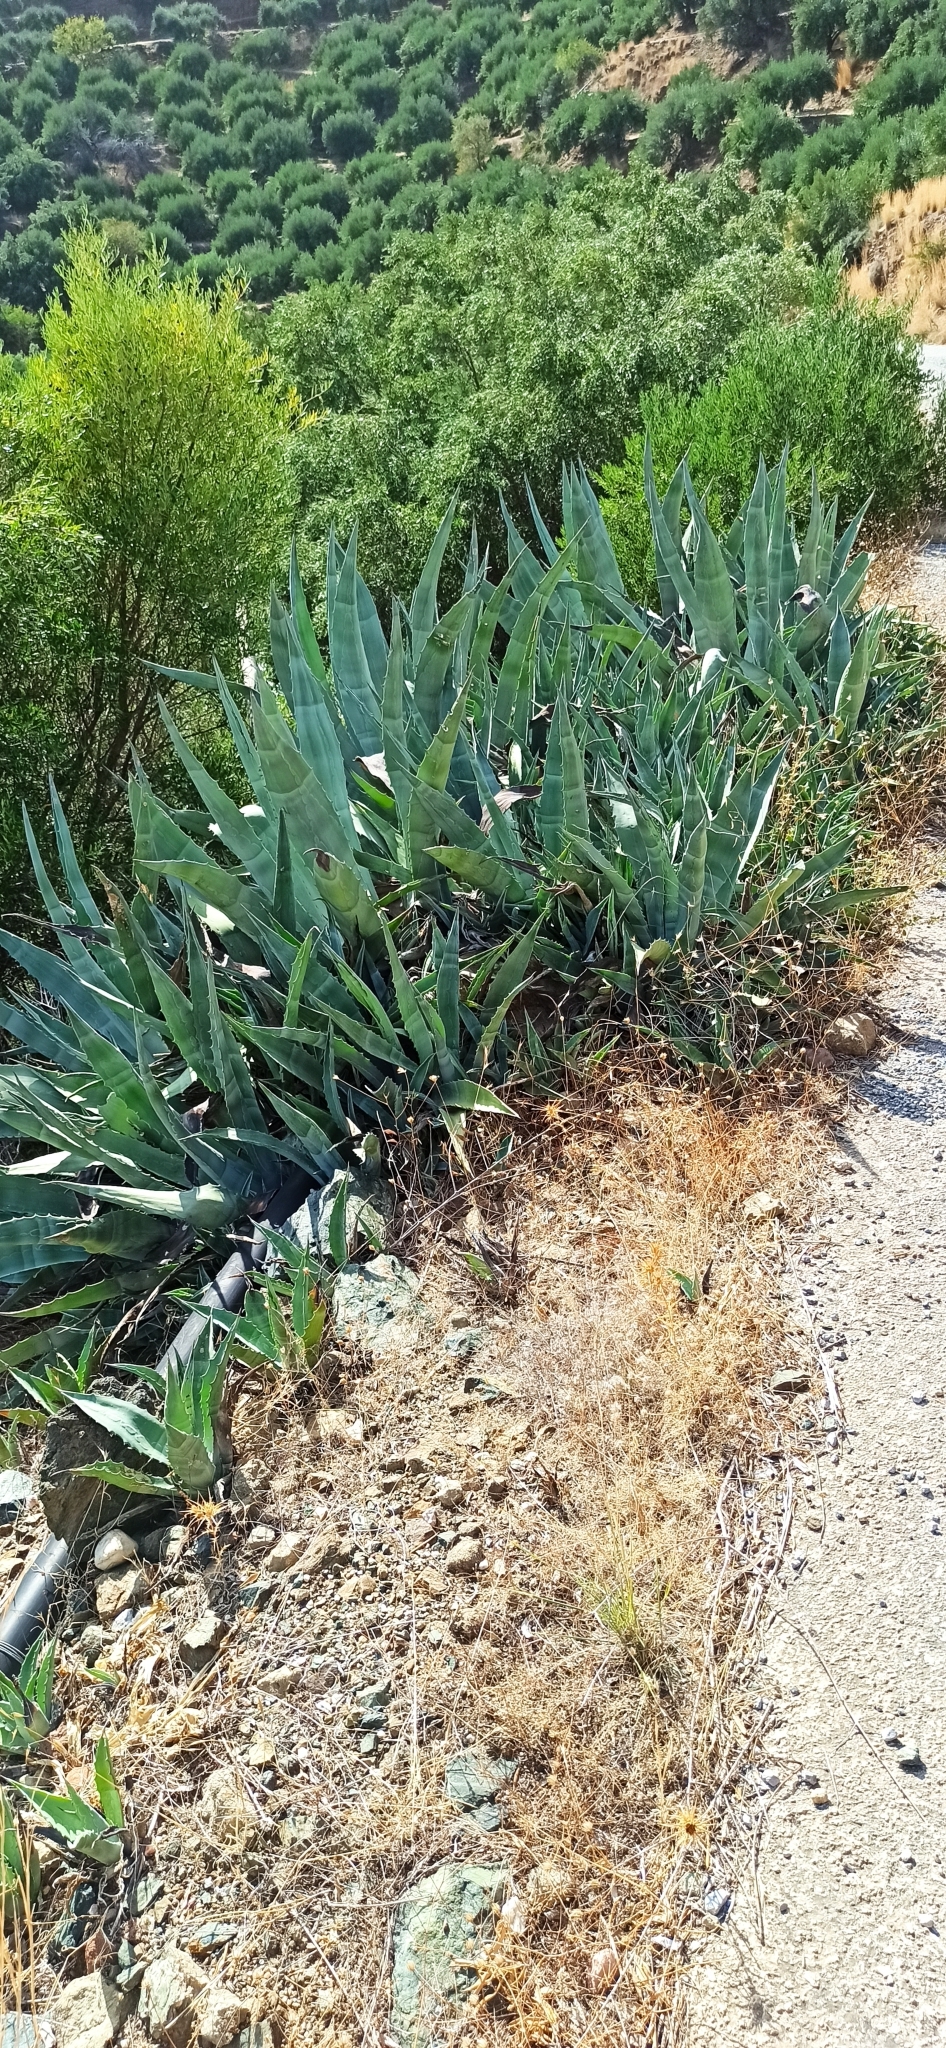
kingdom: Plantae
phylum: Tracheophyta
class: Liliopsida
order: Asparagales
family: Asparagaceae
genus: Agave
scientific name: Agave americana
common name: Centuryplant
